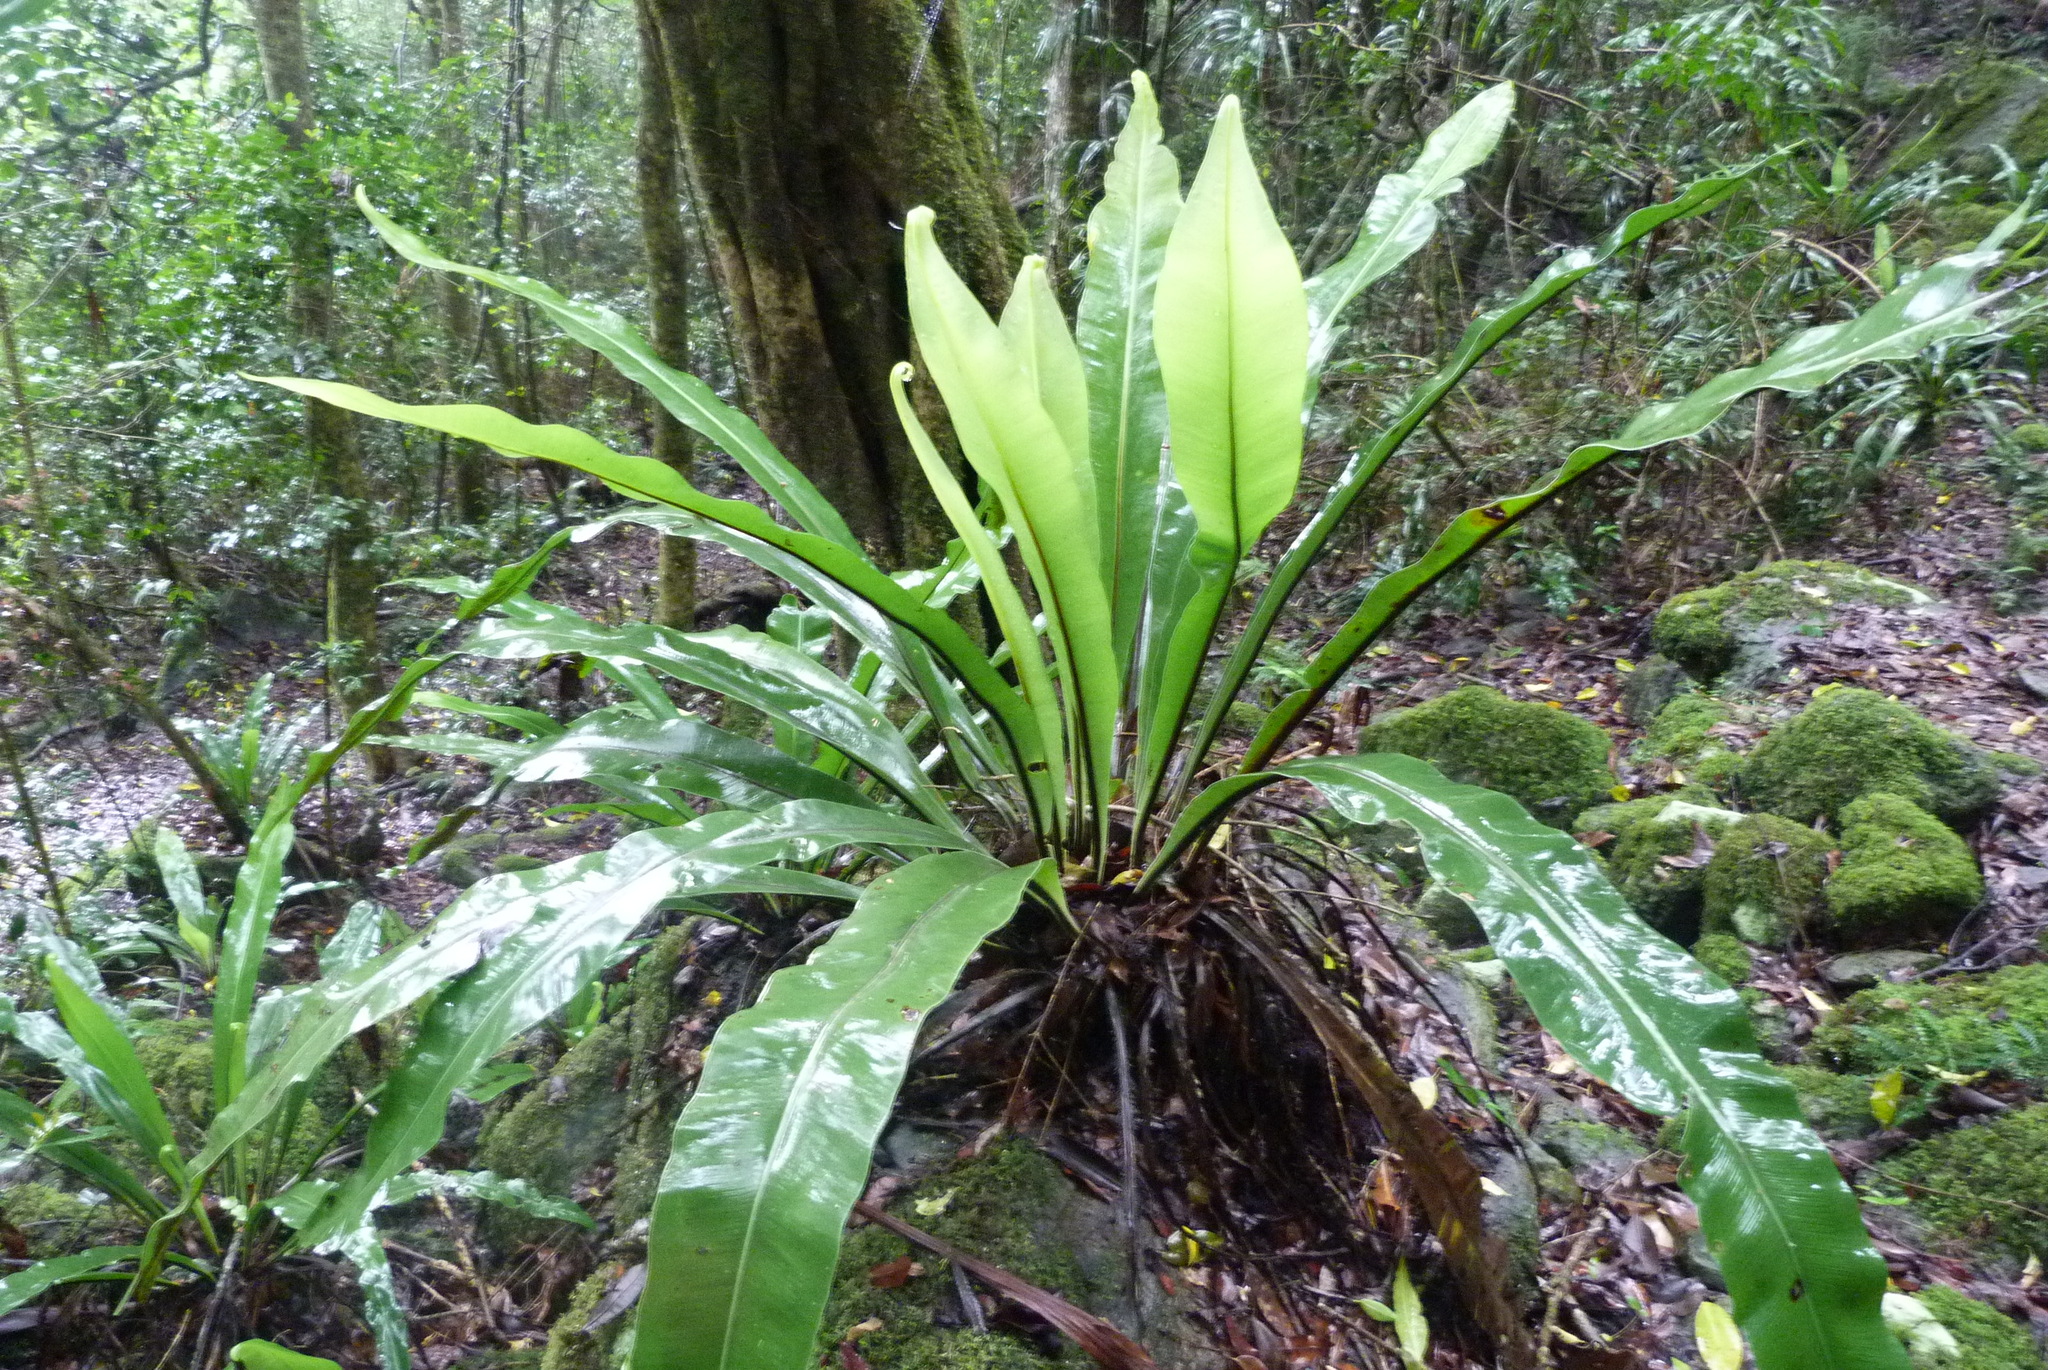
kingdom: Plantae
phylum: Tracheophyta
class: Polypodiopsida
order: Polypodiales
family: Aspleniaceae
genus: Asplenium
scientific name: Asplenium australasicum
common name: Bird's-nest fern
